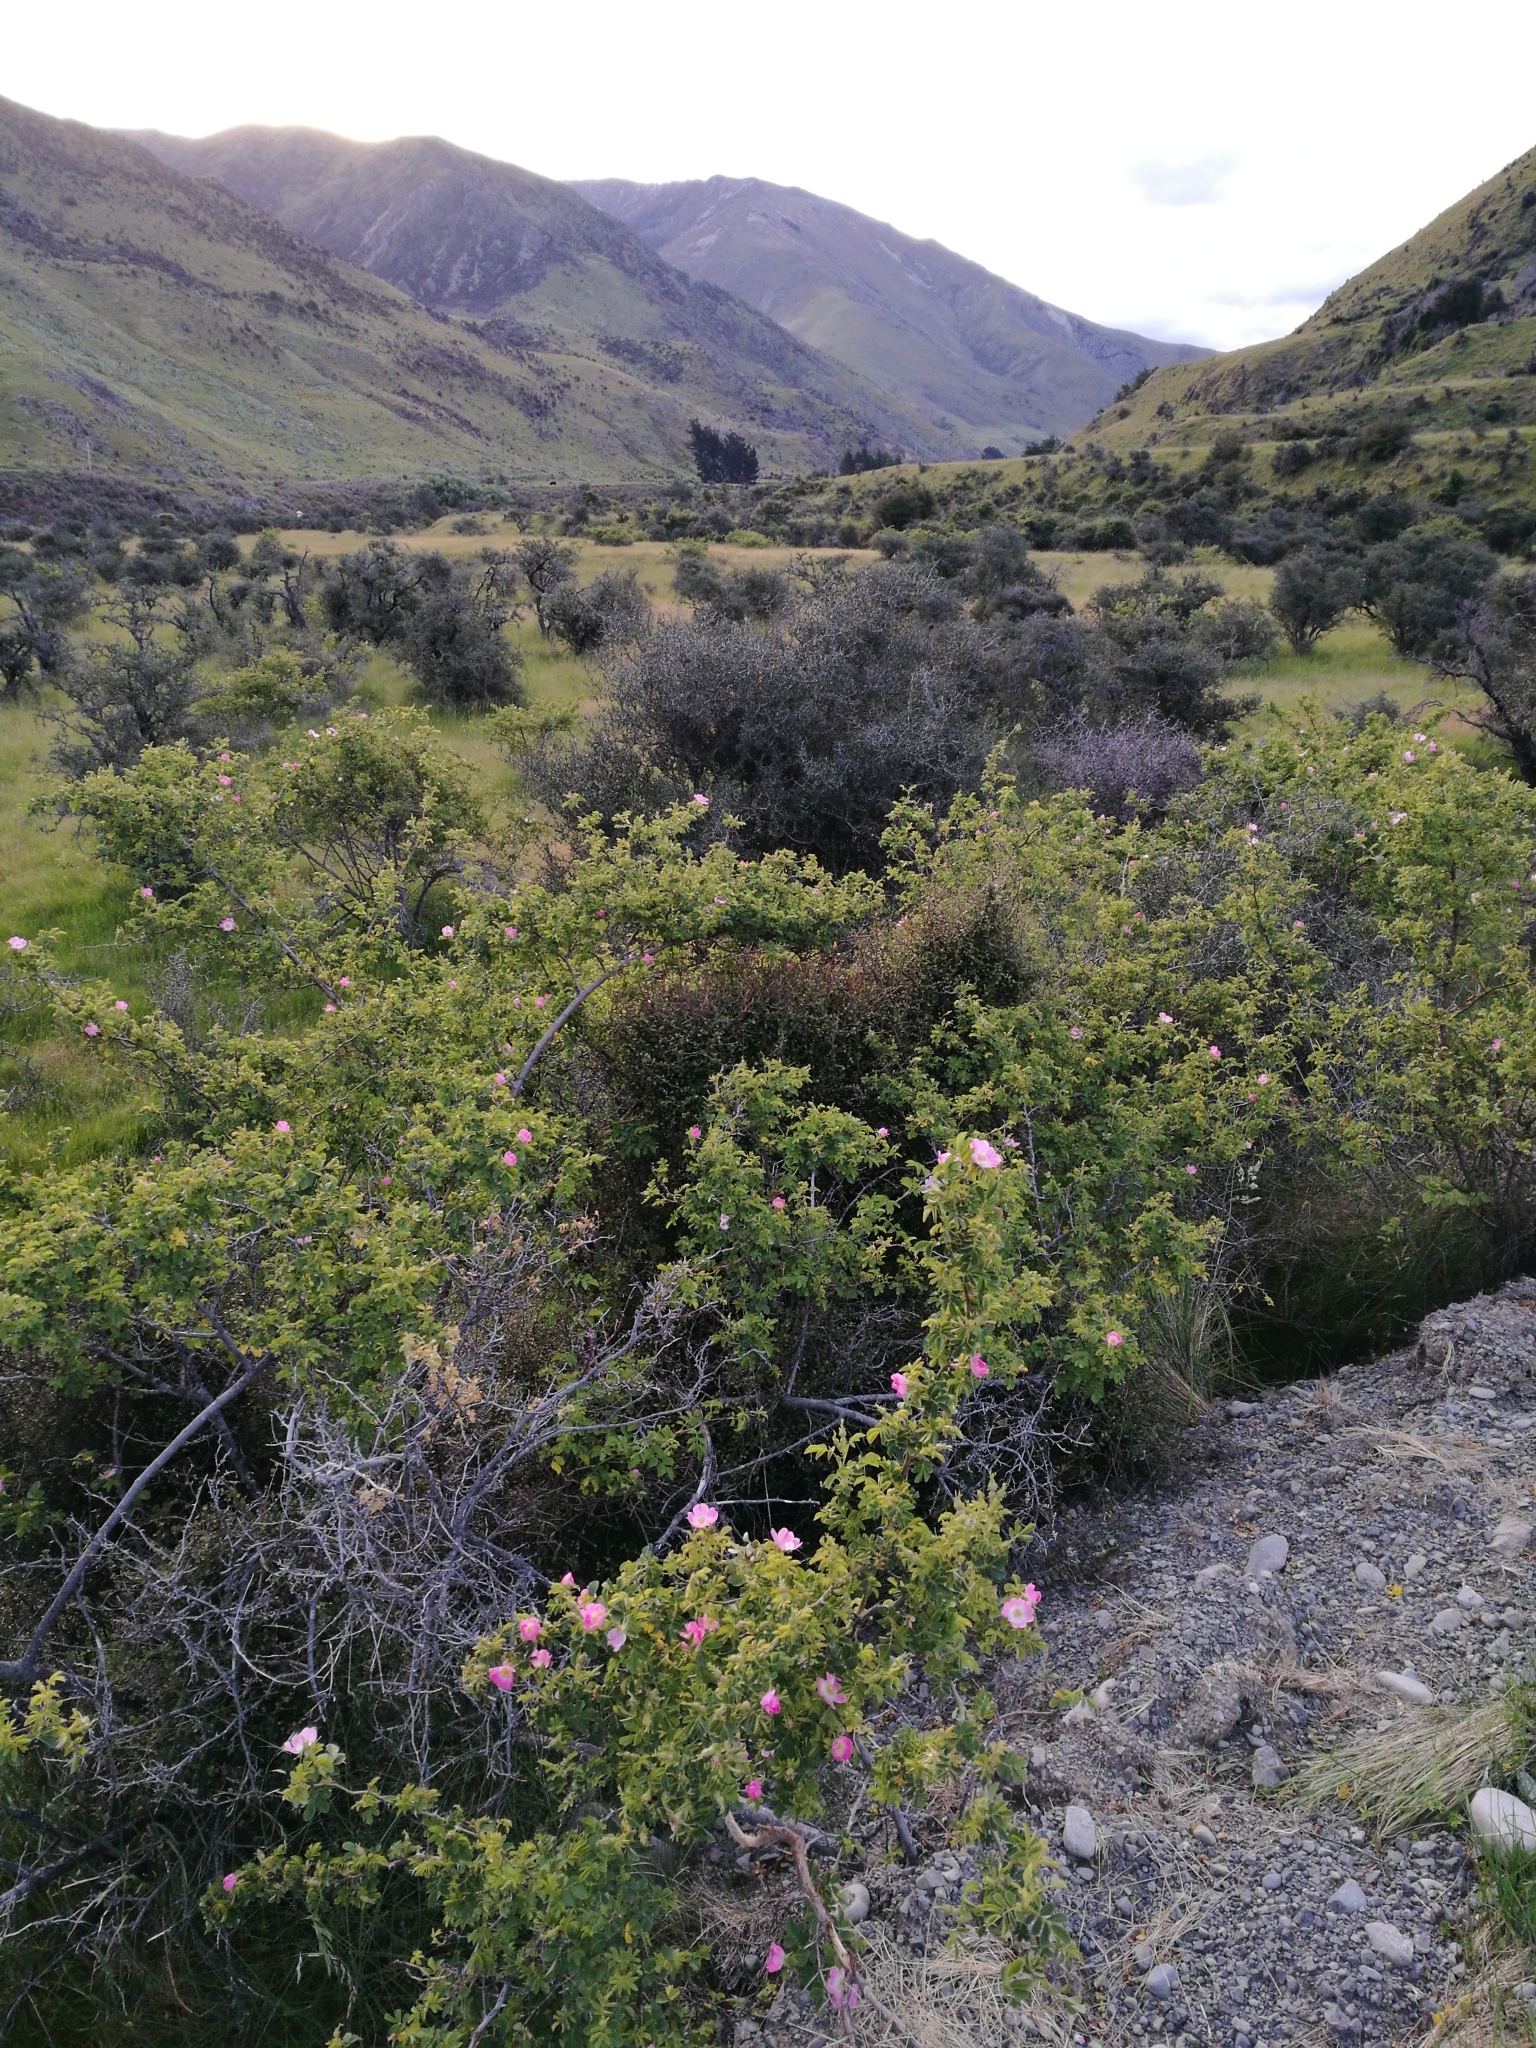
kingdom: Plantae
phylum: Tracheophyta
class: Magnoliopsida
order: Rosales
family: Rosaceae
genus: Rosa
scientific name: Rosa rubiginosa
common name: Sweet-briar
